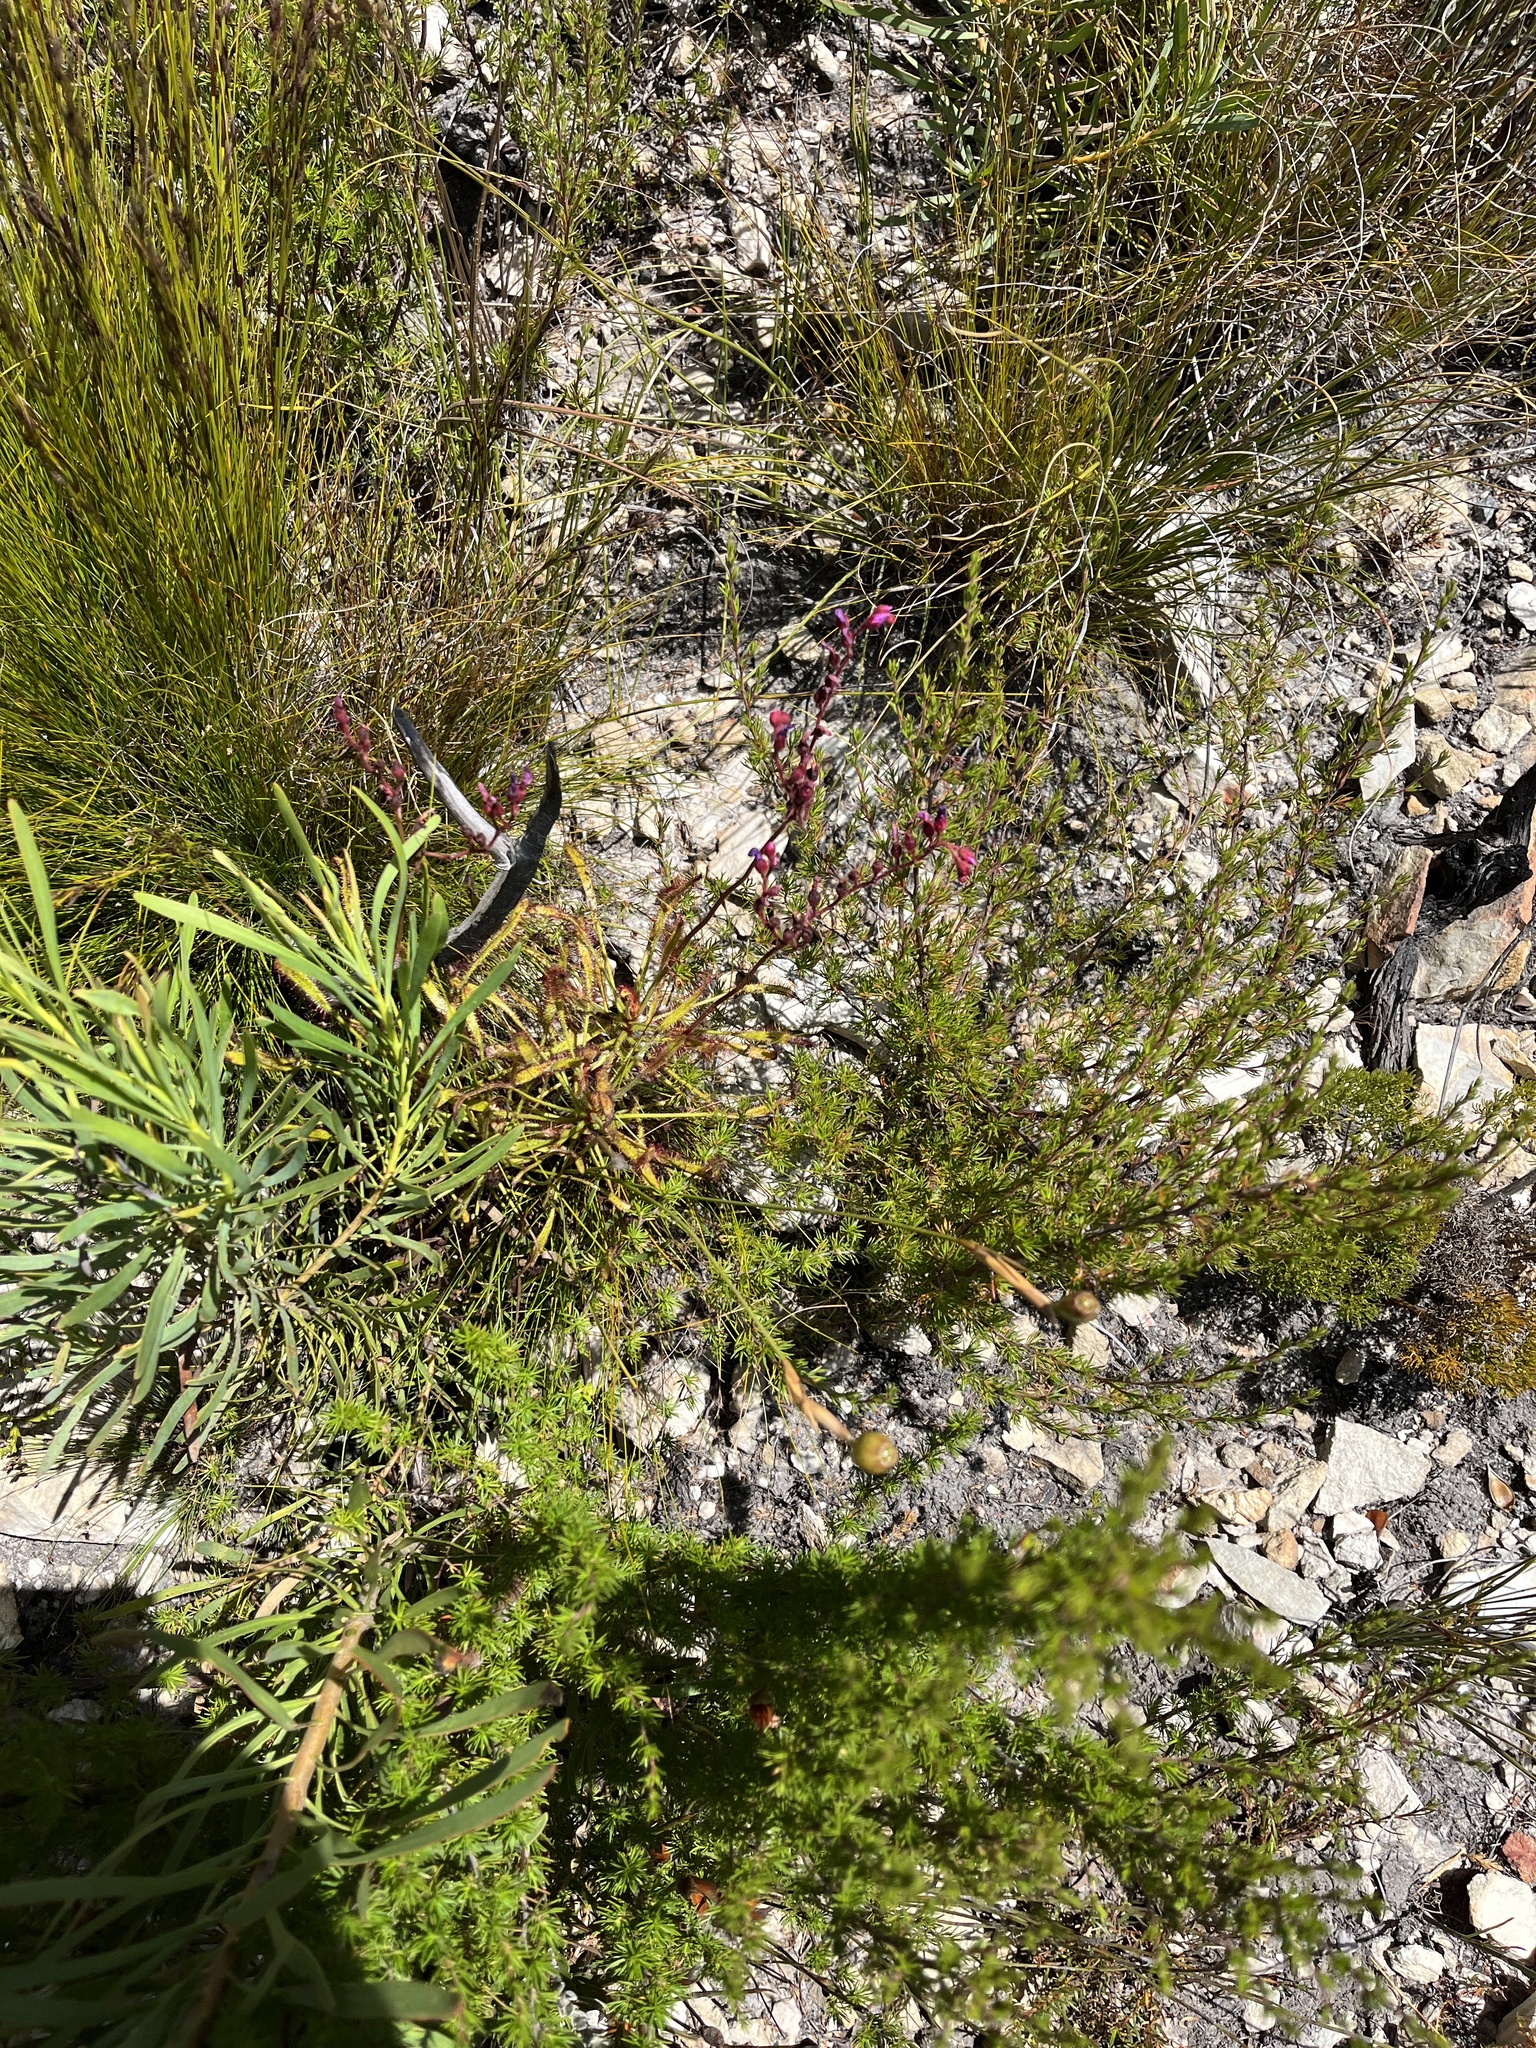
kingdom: Plantae
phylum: Tracheophyta
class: Magnoliopsida
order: Caryophyllales
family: Droseraceae
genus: Drosera
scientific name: Drosera ramentacea
